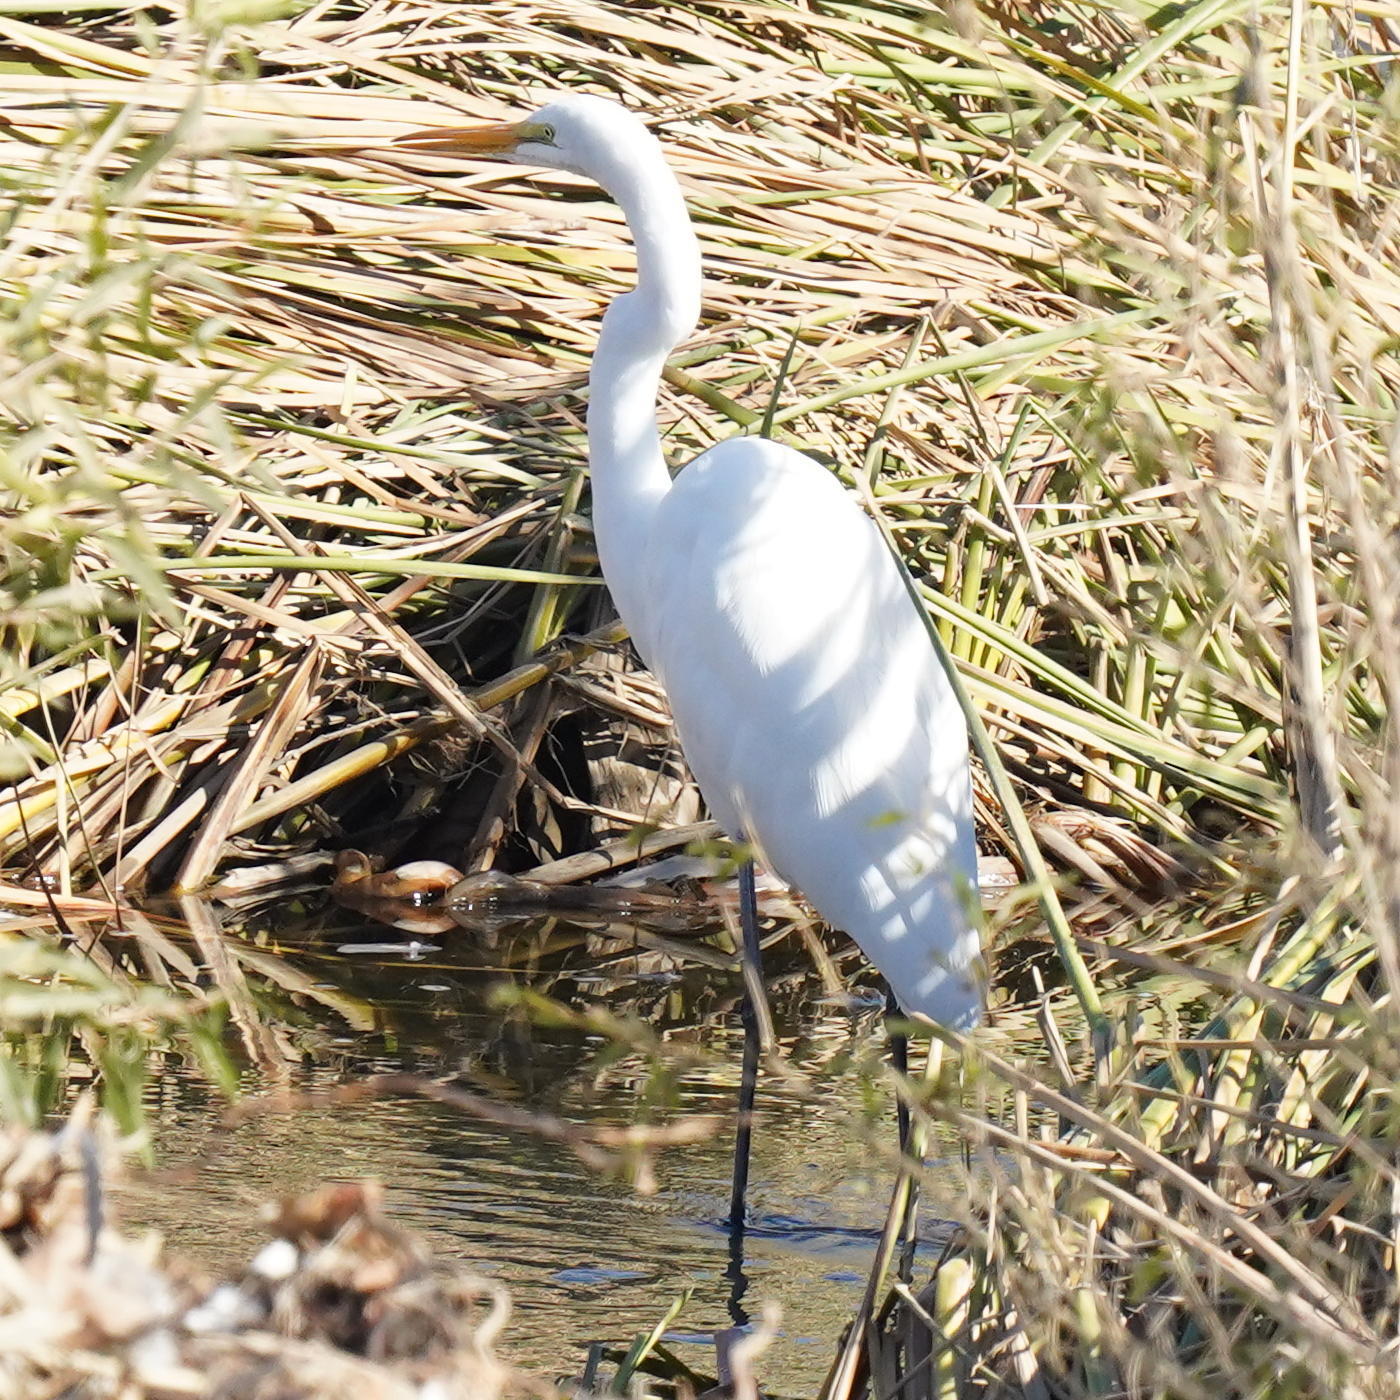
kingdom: Animalia
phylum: Chordata
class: Aves
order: Pelecaniformes
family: Ardeidae
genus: Ardea
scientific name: Ardea alba
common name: Great egret
